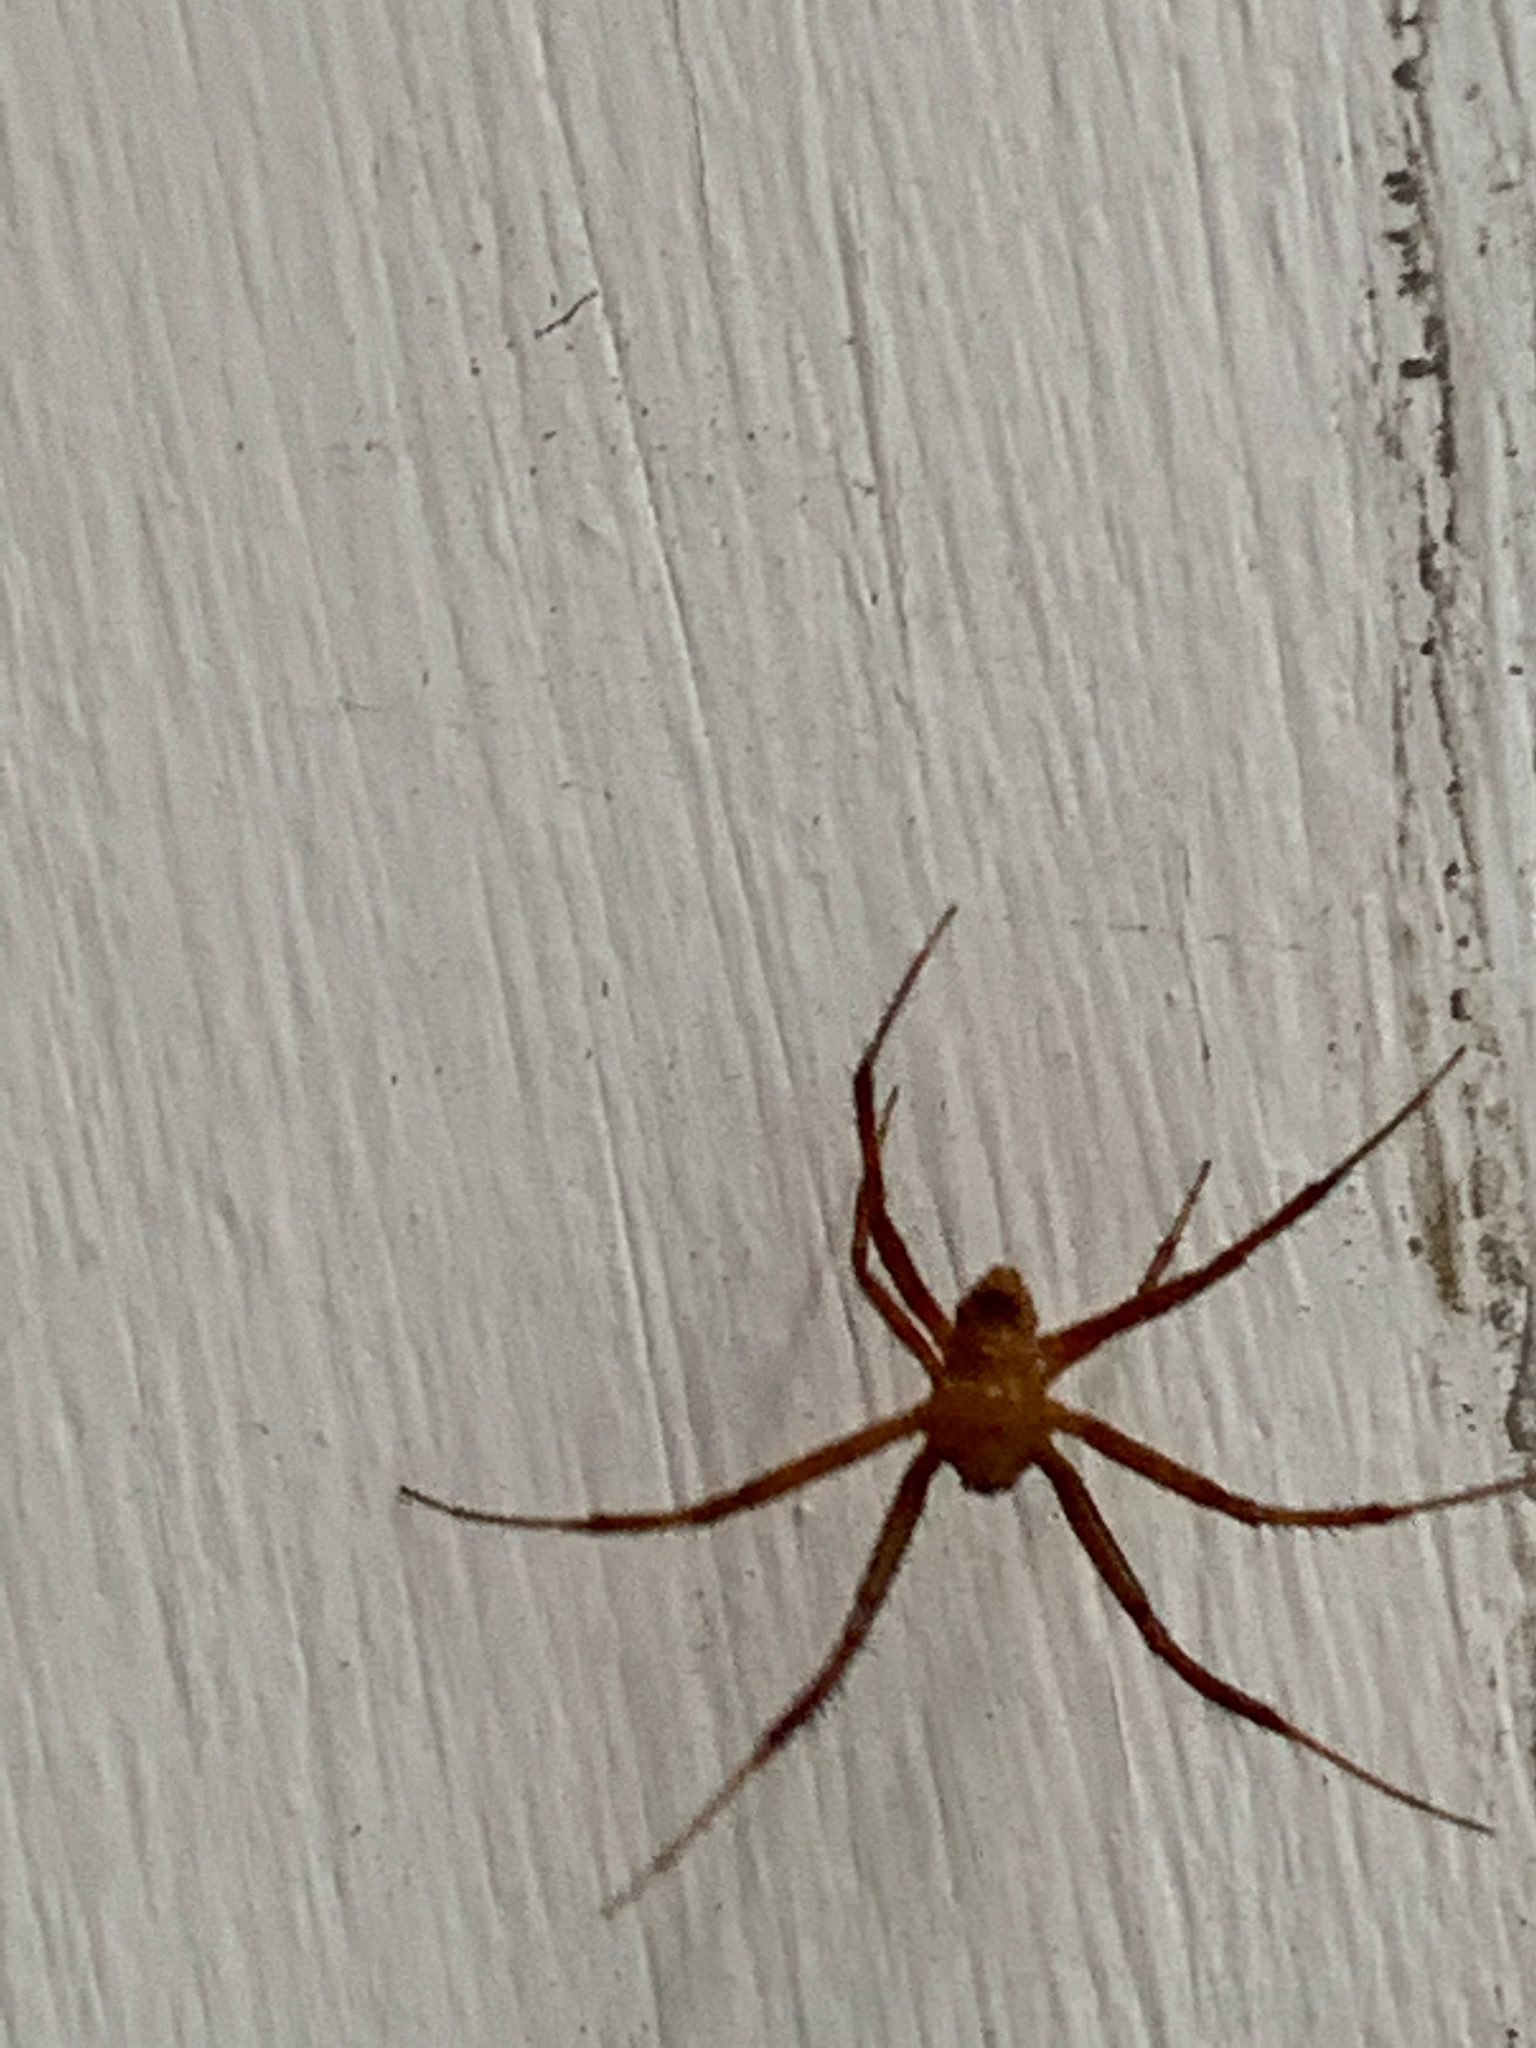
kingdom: Animalia
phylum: Arthropoda
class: Arachnida
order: Araneae
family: Araneidae
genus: Gea
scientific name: Gea heptagon
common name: Orb weavers
